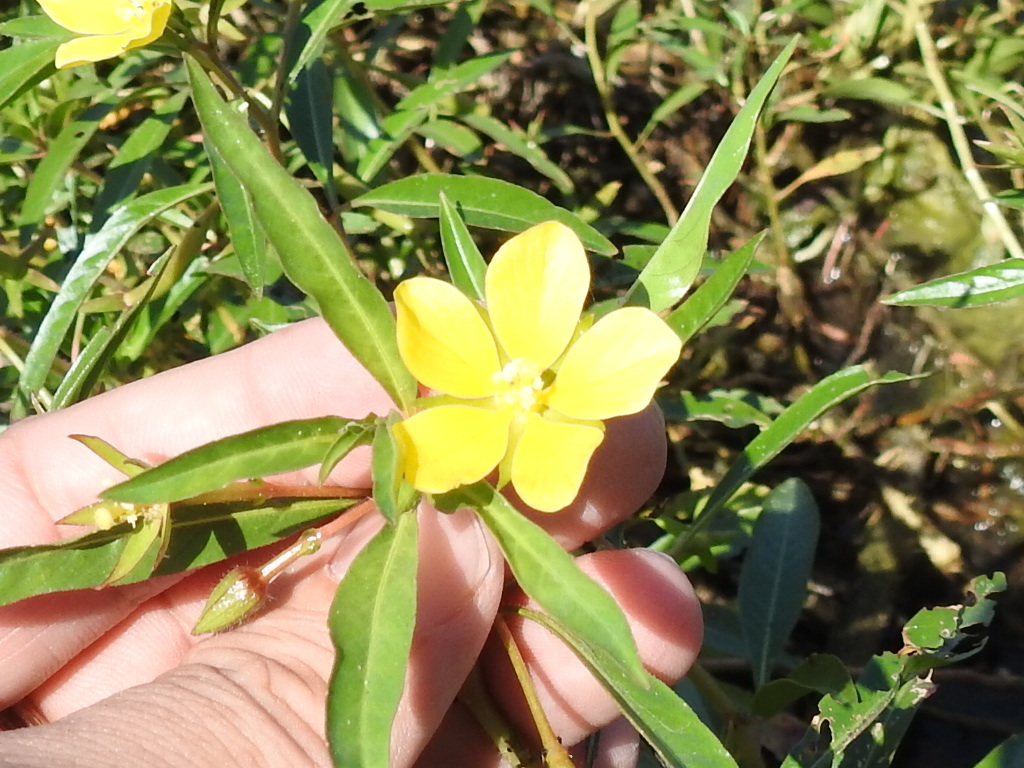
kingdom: Plantae
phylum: Tracheophyta
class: Magnoliopsida
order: Myrtales
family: Onagraceae
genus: Ludwigia
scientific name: Ludwigia peploides
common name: Floating primrose-willow
